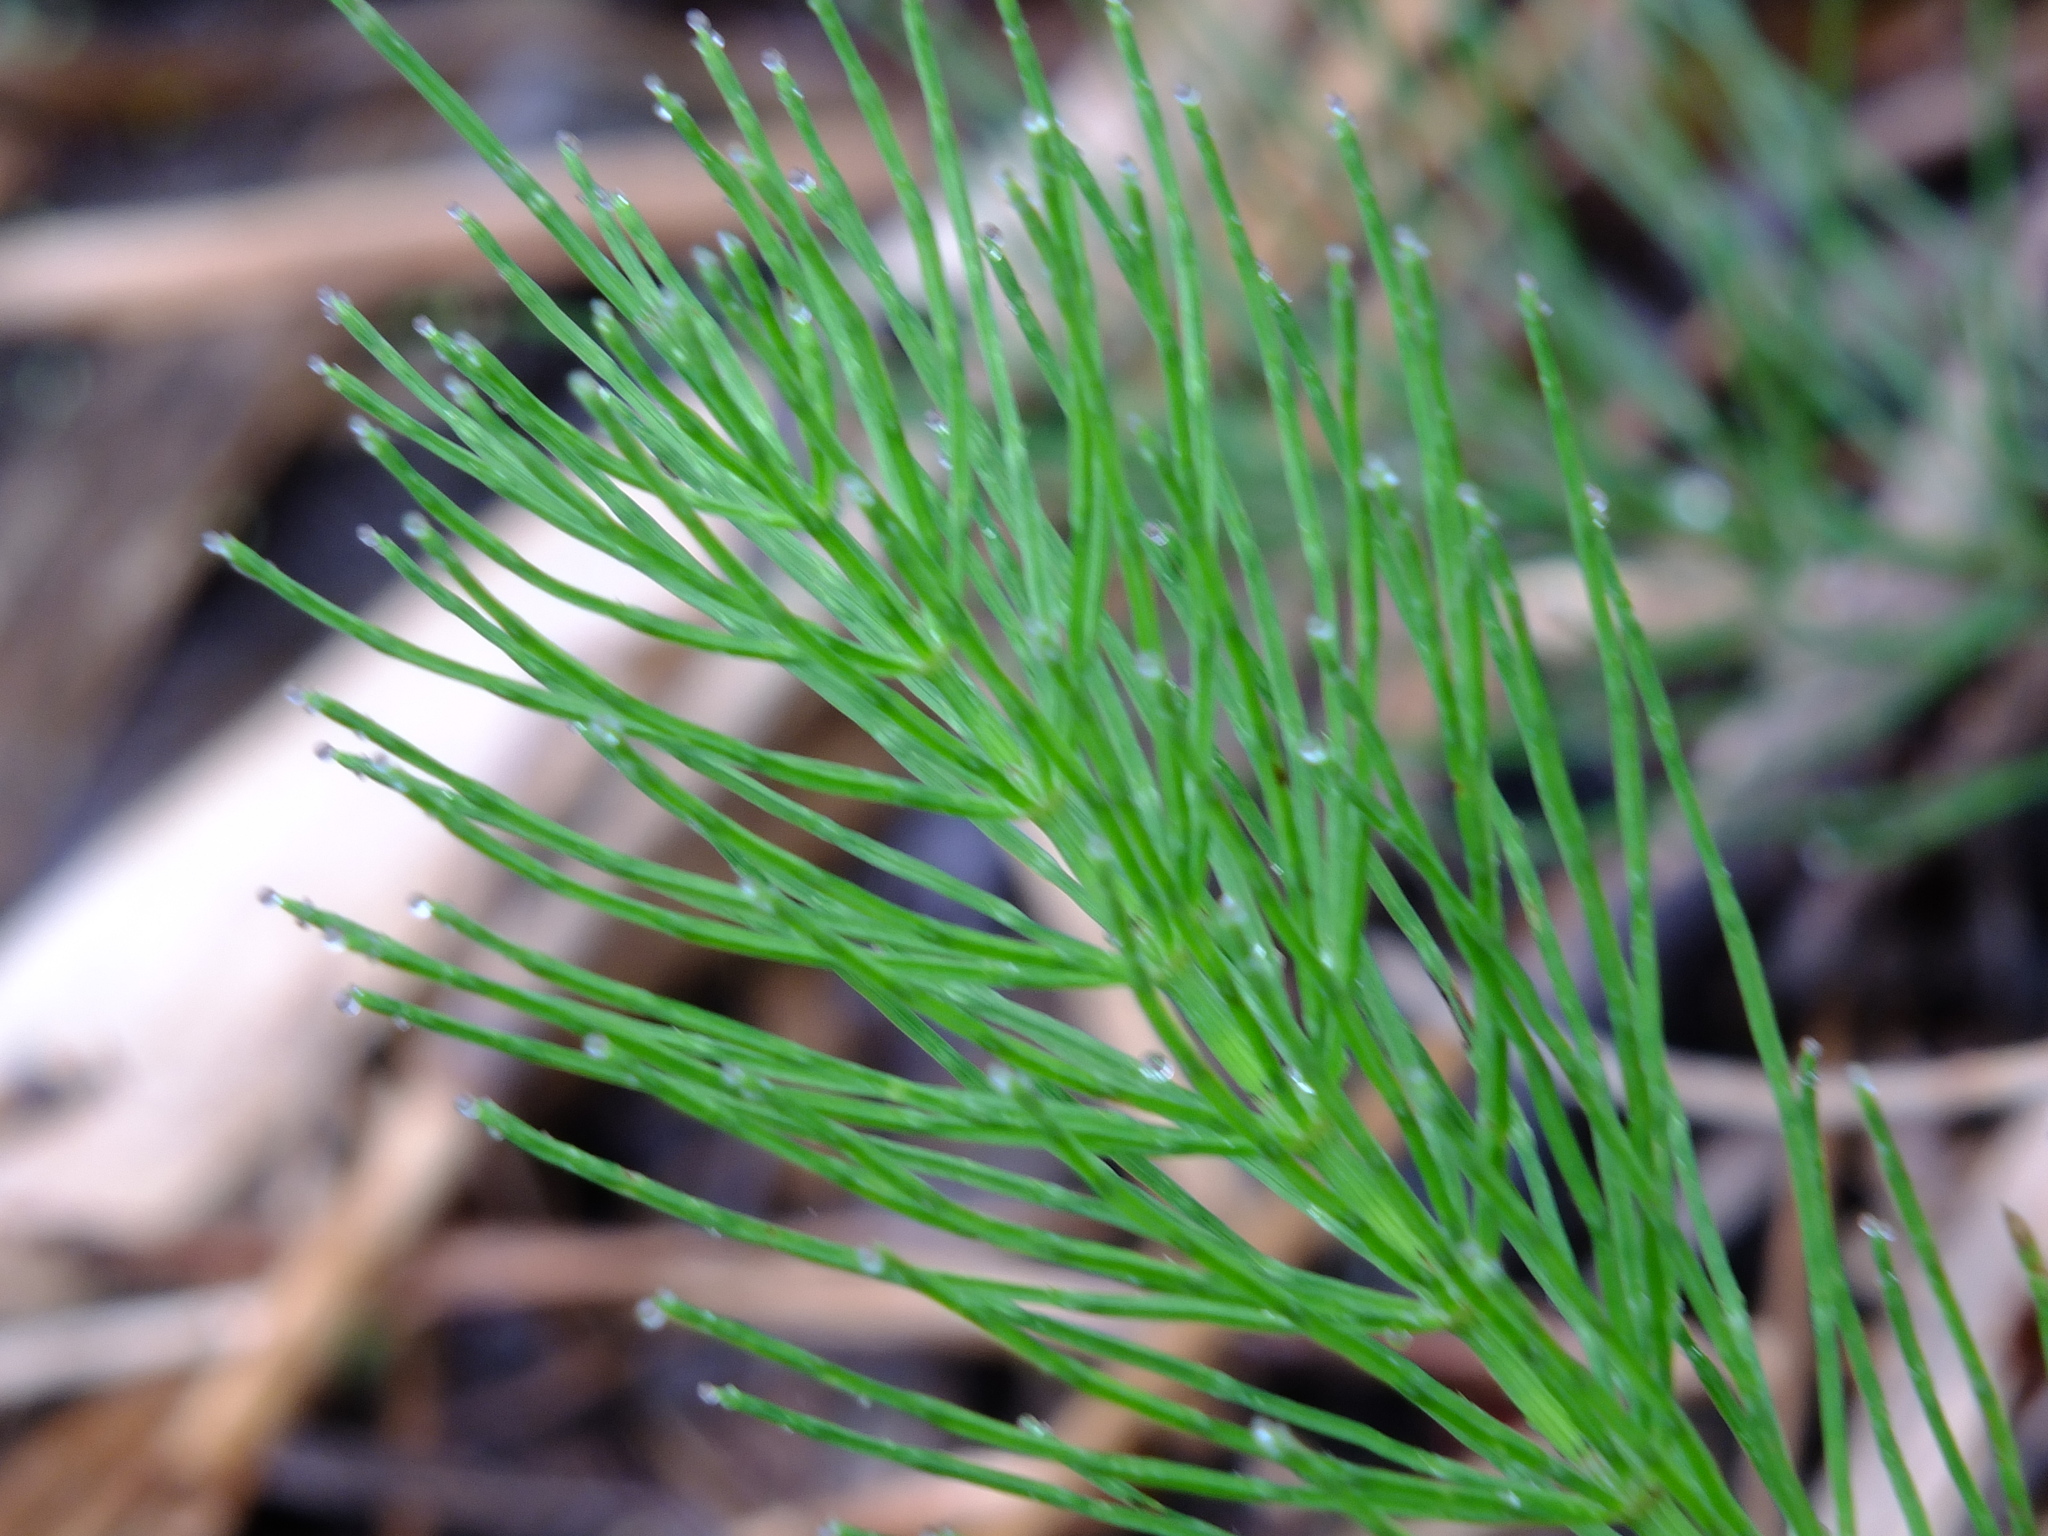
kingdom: Plantae
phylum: Tracheophyta
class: Polypodiopsida
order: Equisetales
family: Equisetaceae
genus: Equisetum
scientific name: Equisetum arvense
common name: Field horsetail
